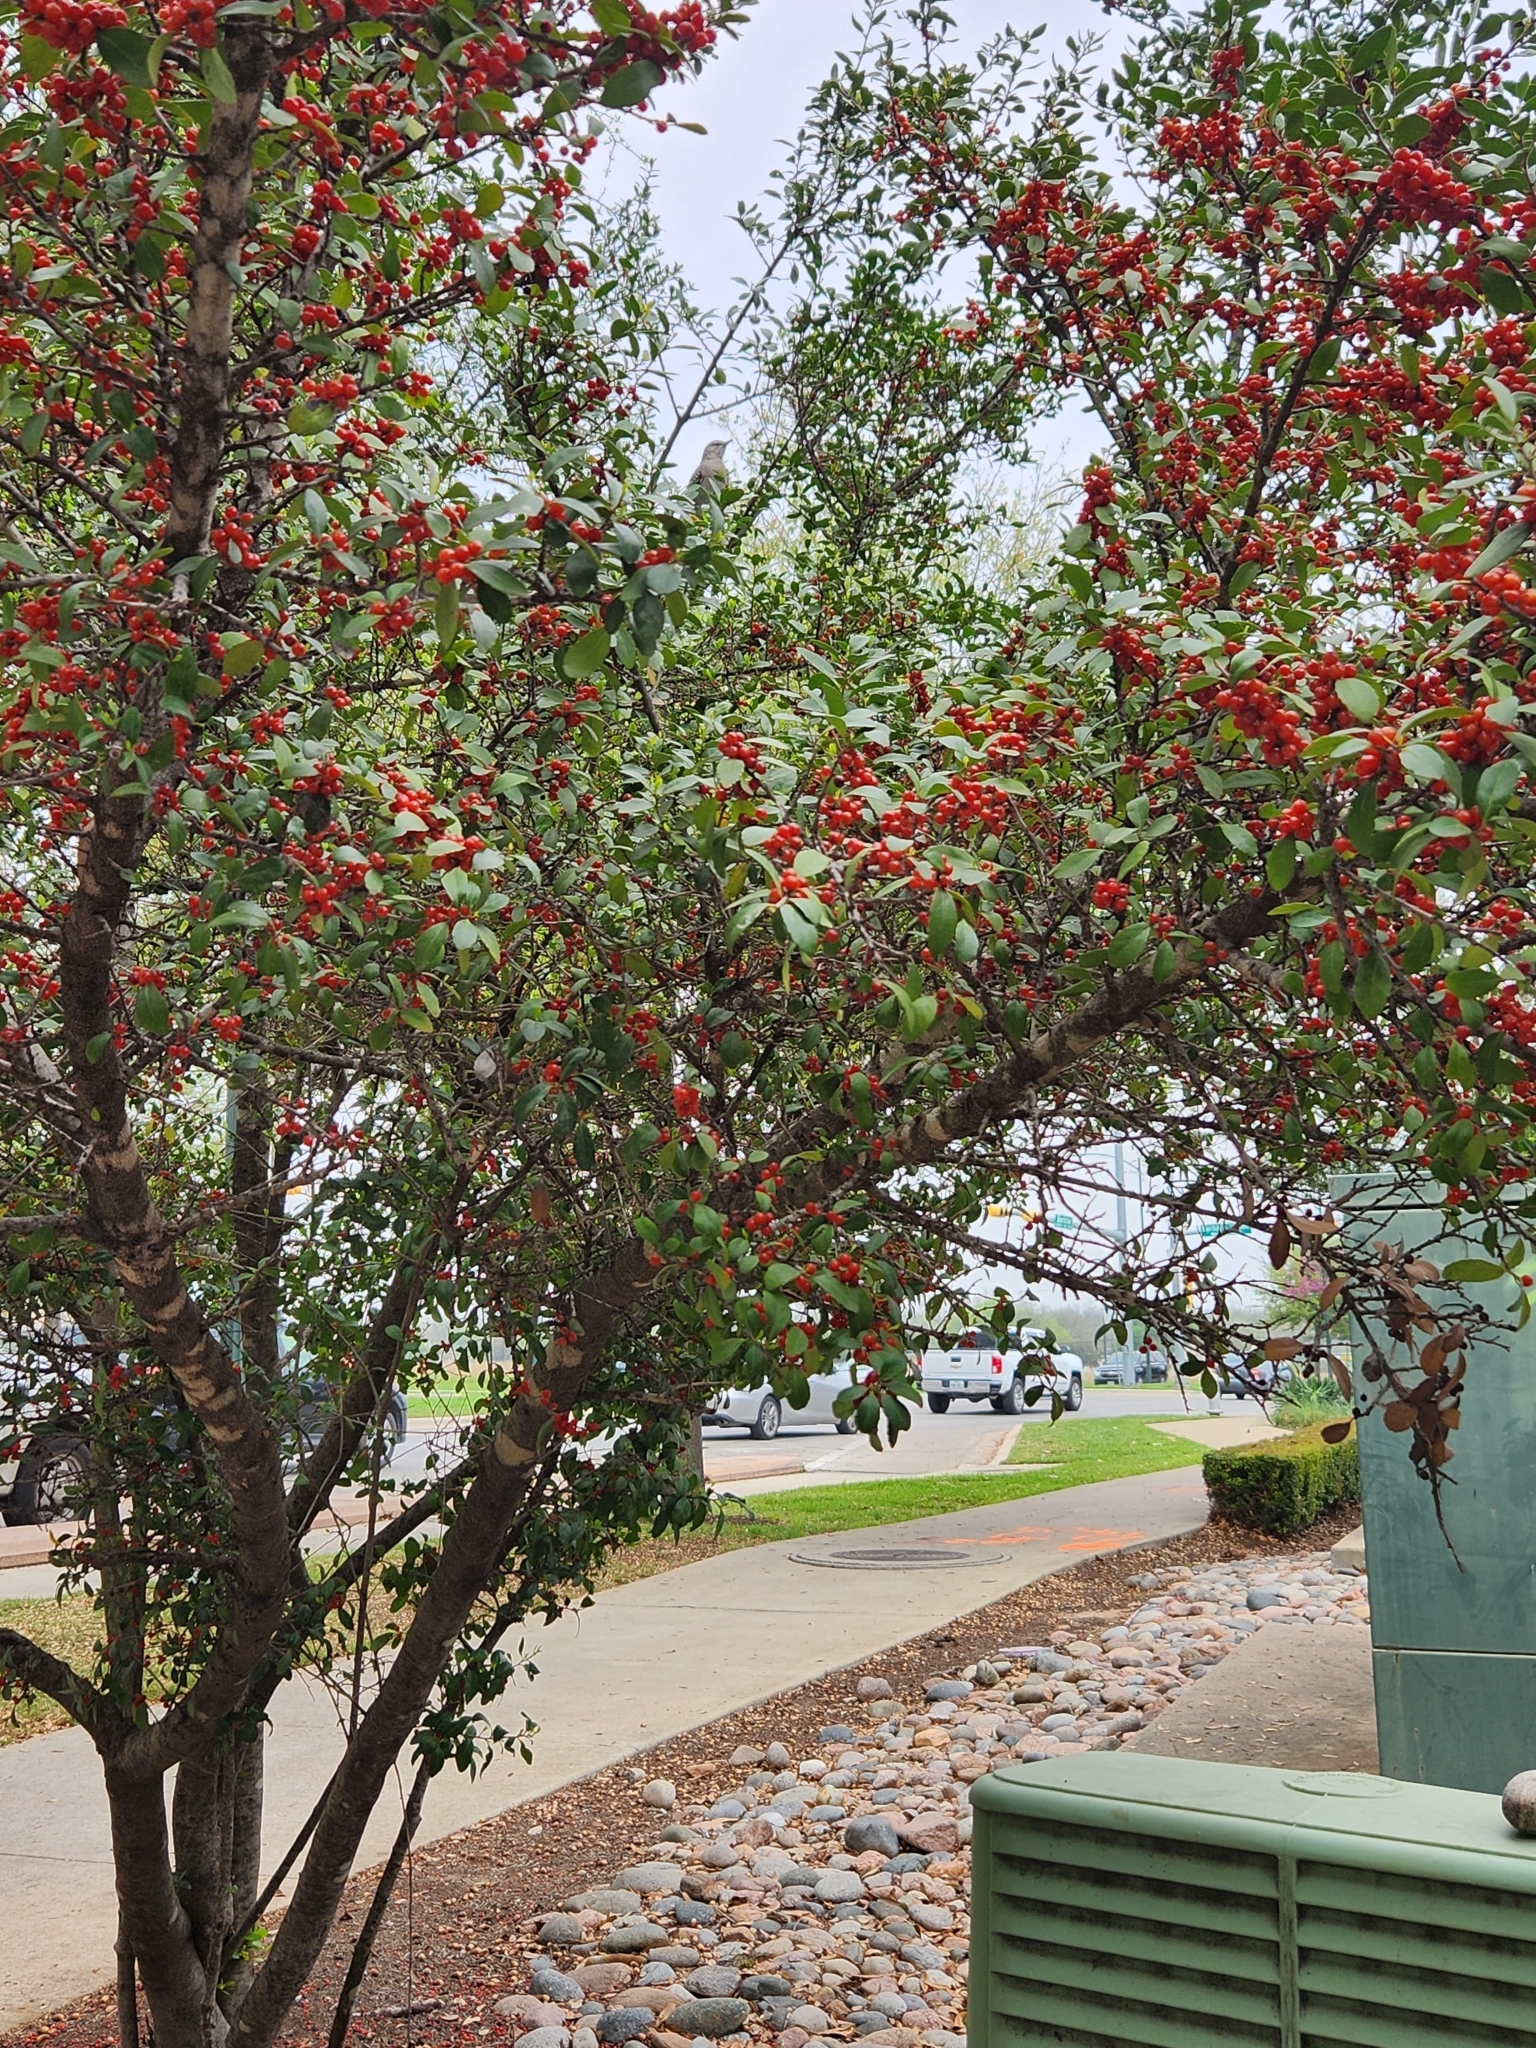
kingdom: Animalia
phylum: Chordata
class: Aves
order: Passeriformes
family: Mimidae
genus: Mimus
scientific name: Mimus polyglottos
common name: Northern mockingbird
